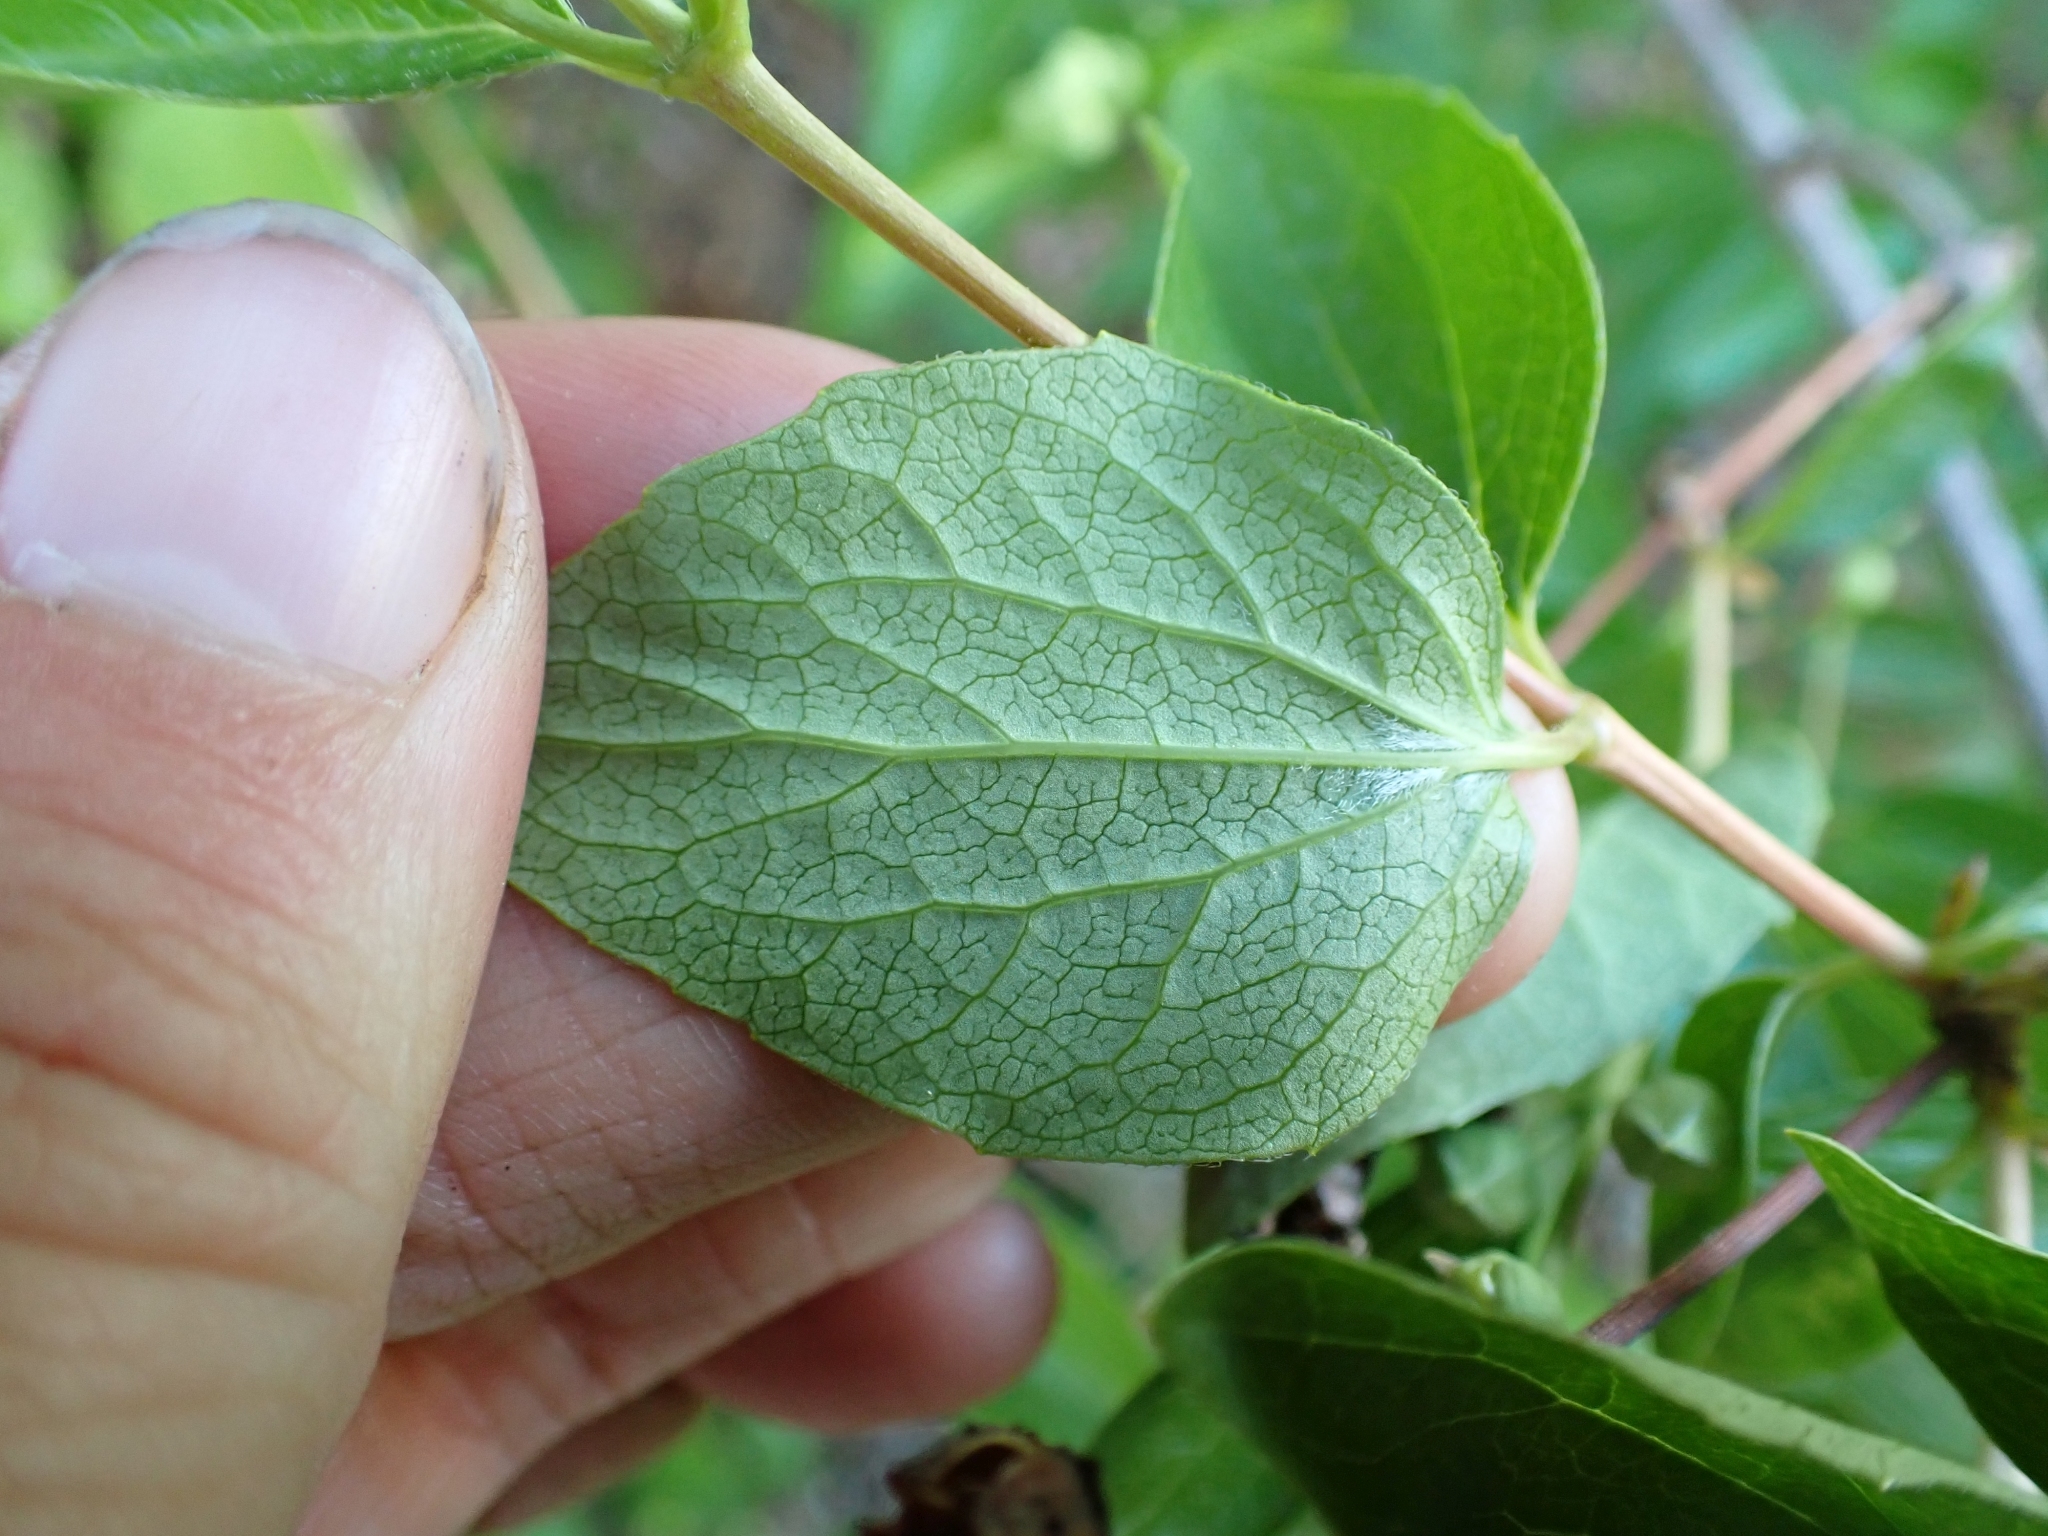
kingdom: Plantae
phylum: Tracheophyta
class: Magnoliopsida
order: Cornales
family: Hydrangeaceae
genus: Philadelphus
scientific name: Philadelphus lewisii
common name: Lewis's mock orange
